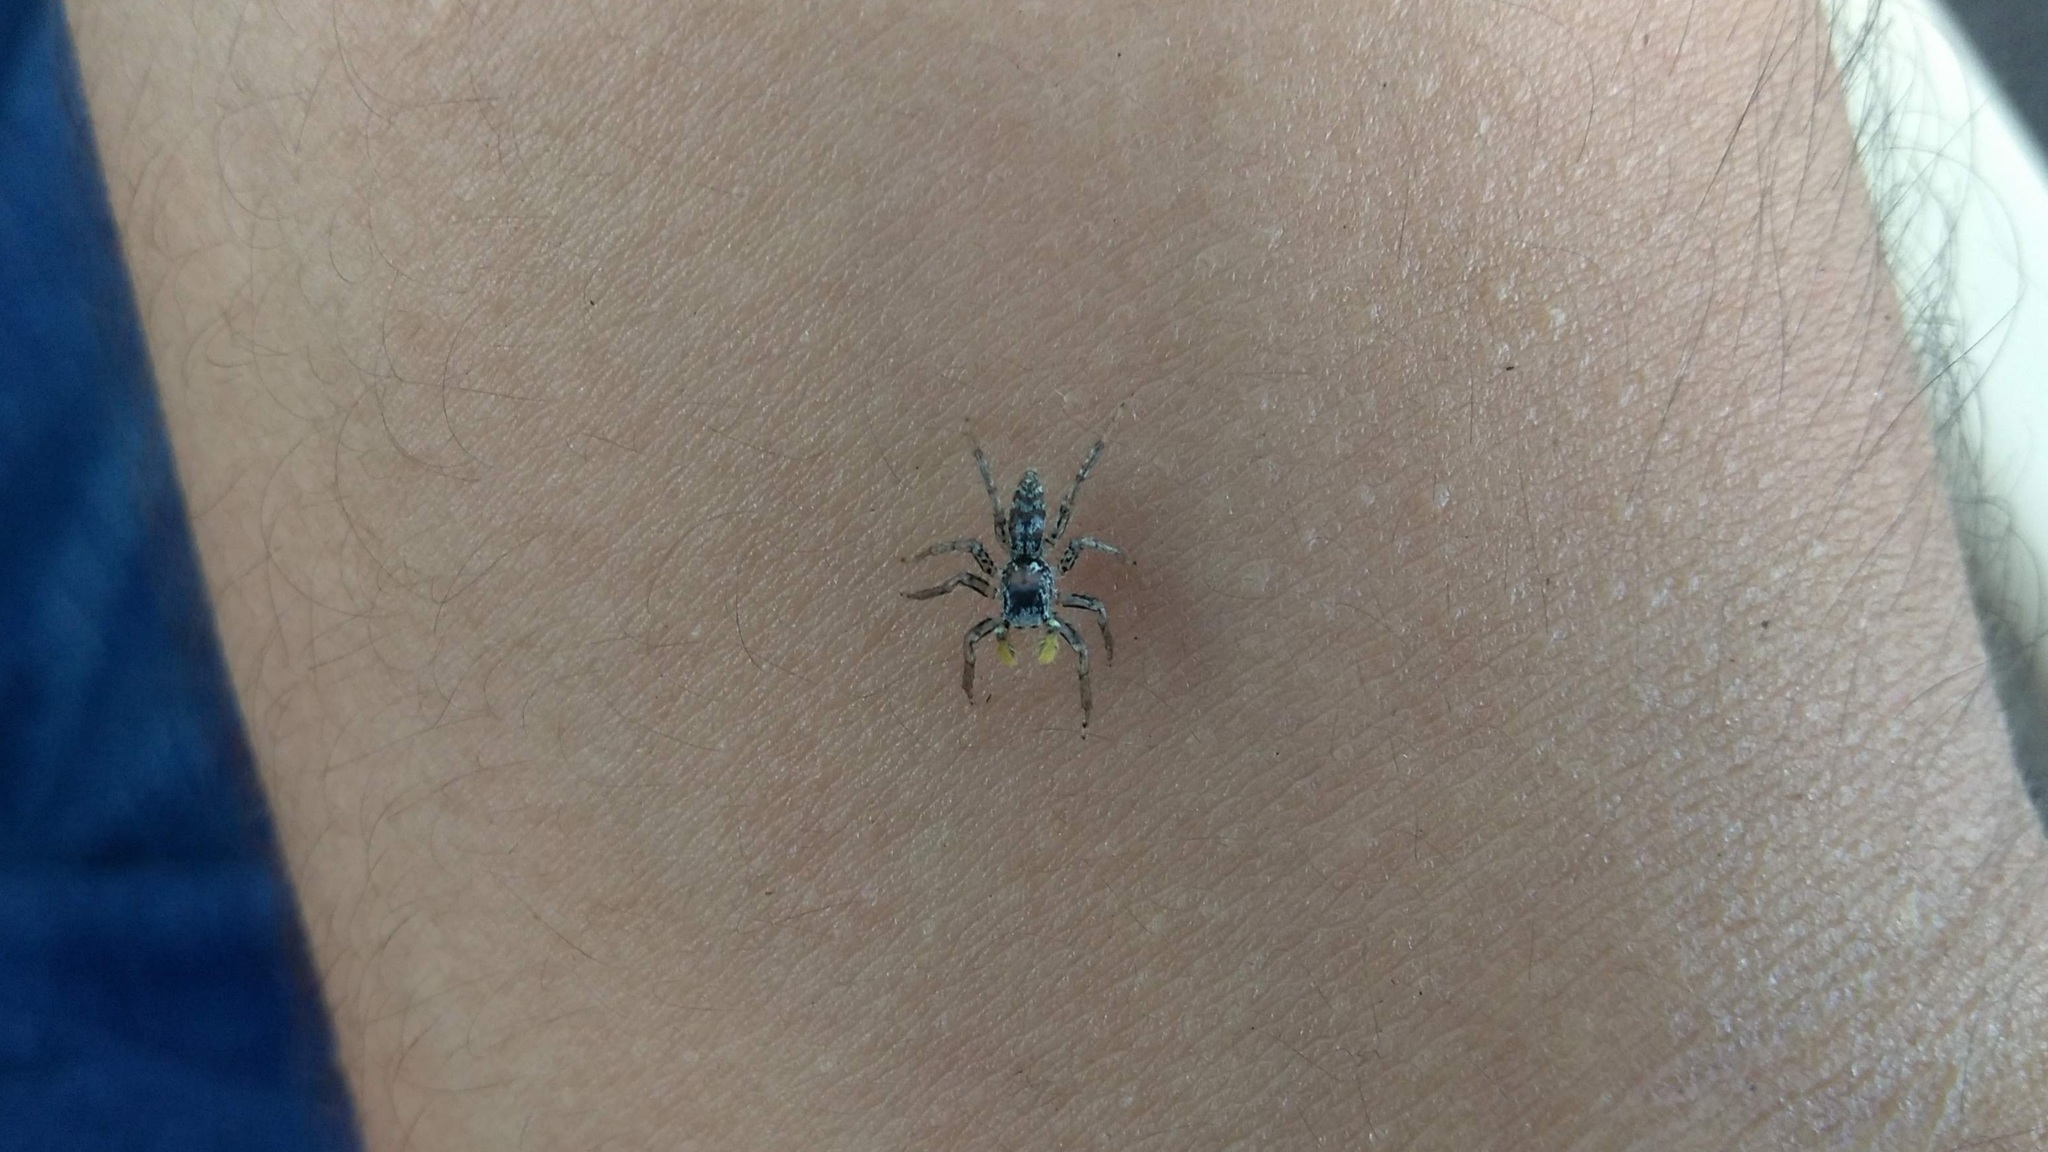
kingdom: Animalia
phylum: Arthropoda
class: Arachnida
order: Araneae
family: Salticidae
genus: Maevia
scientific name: Maevia inclemens
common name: Dimorphic jumper
